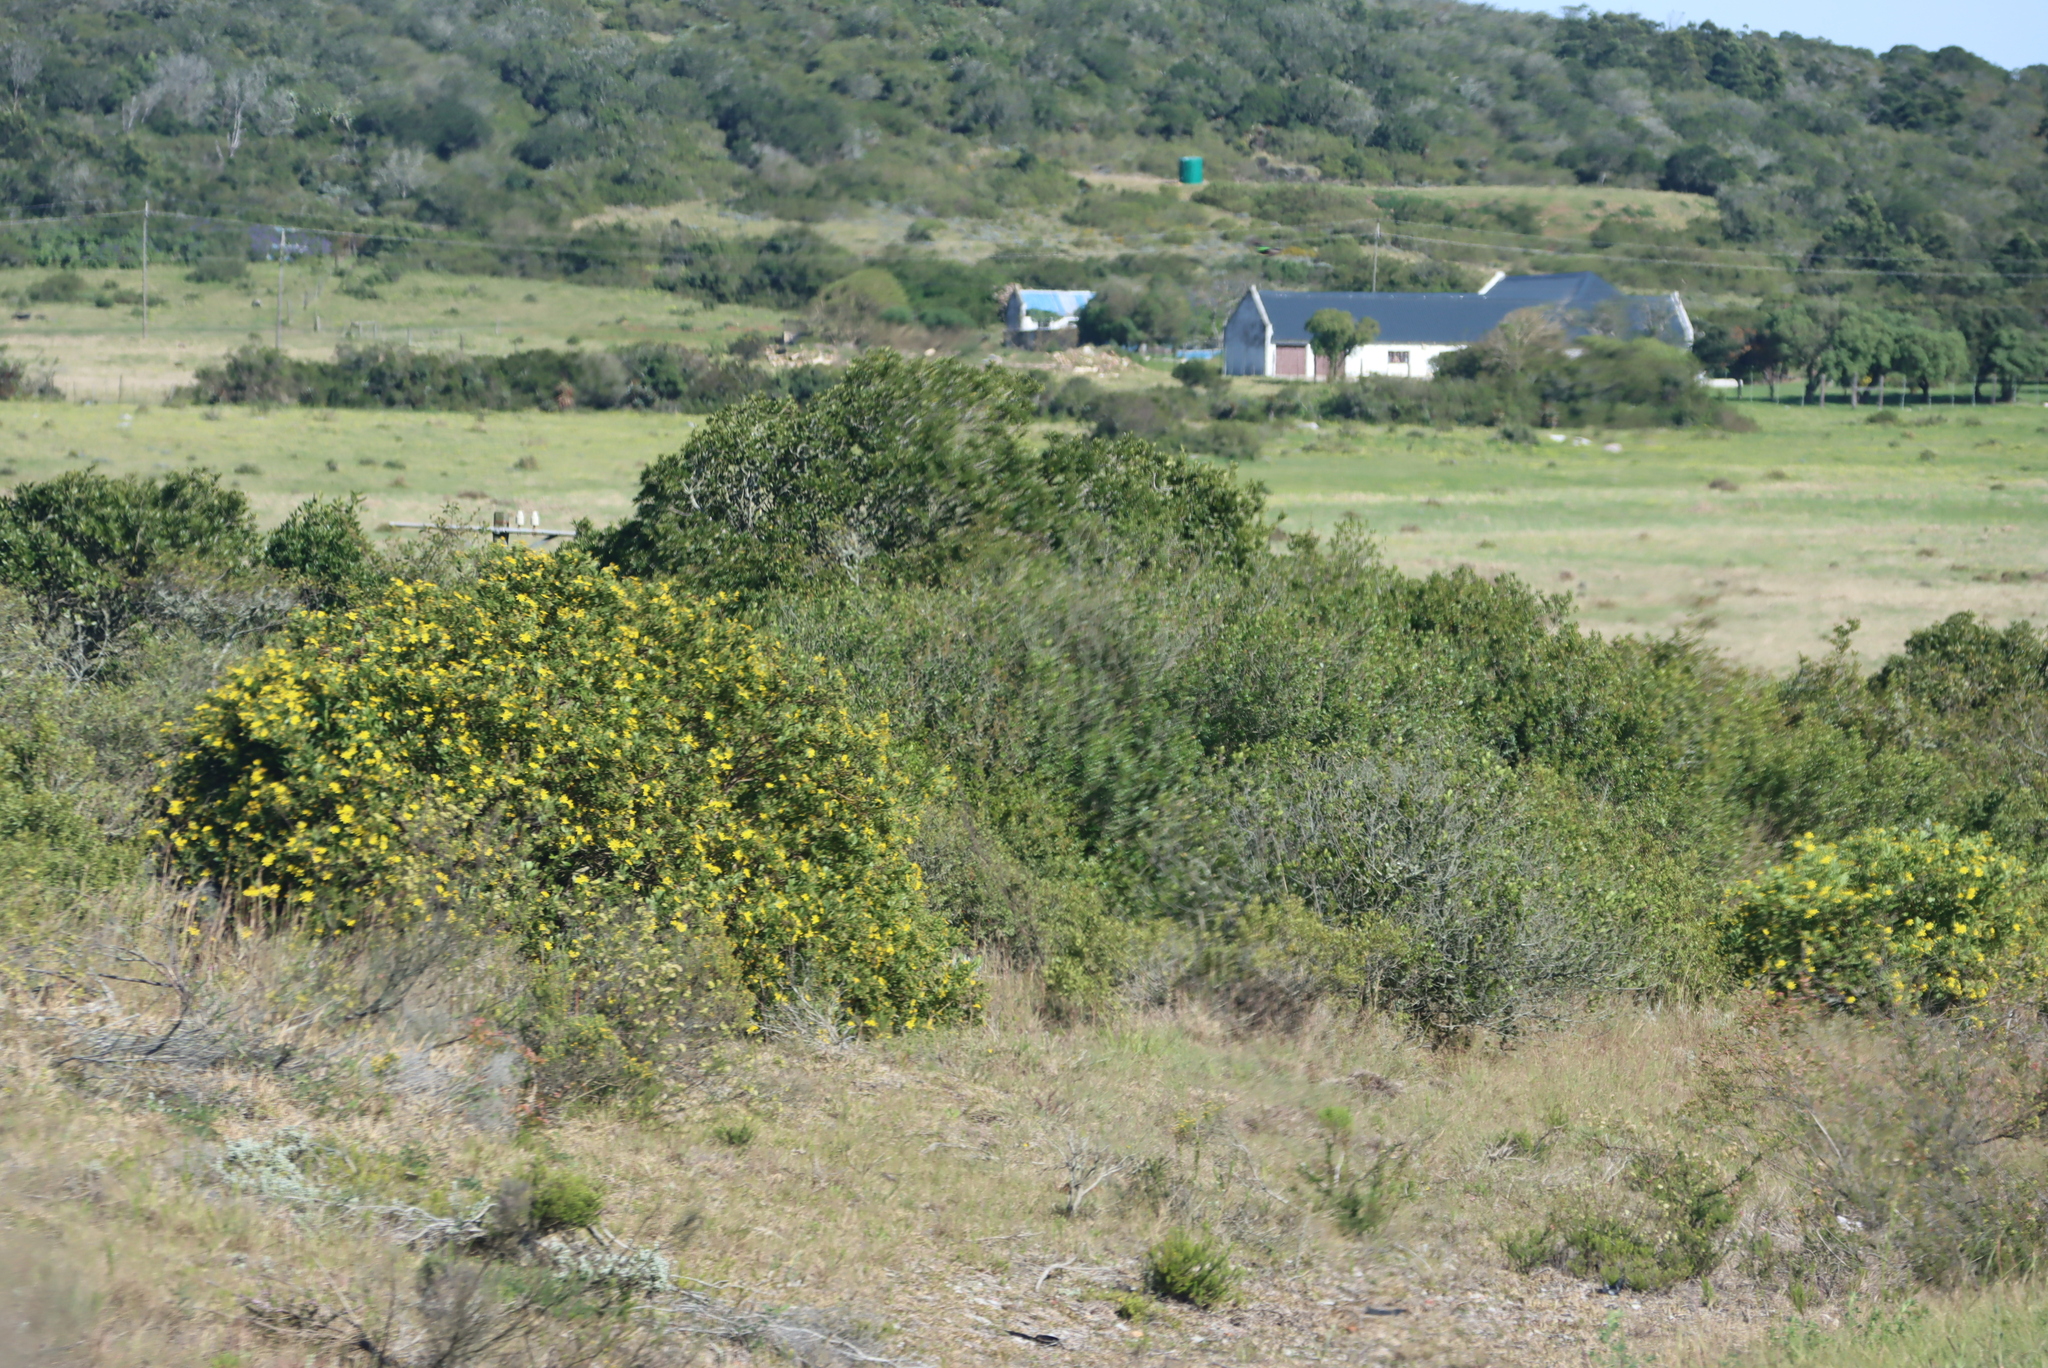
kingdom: Plantae
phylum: Tracheophyta
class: Magnoliopsida
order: Asterales
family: Asteraceae
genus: Osteospermum
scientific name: Osteospermum moniliferum
